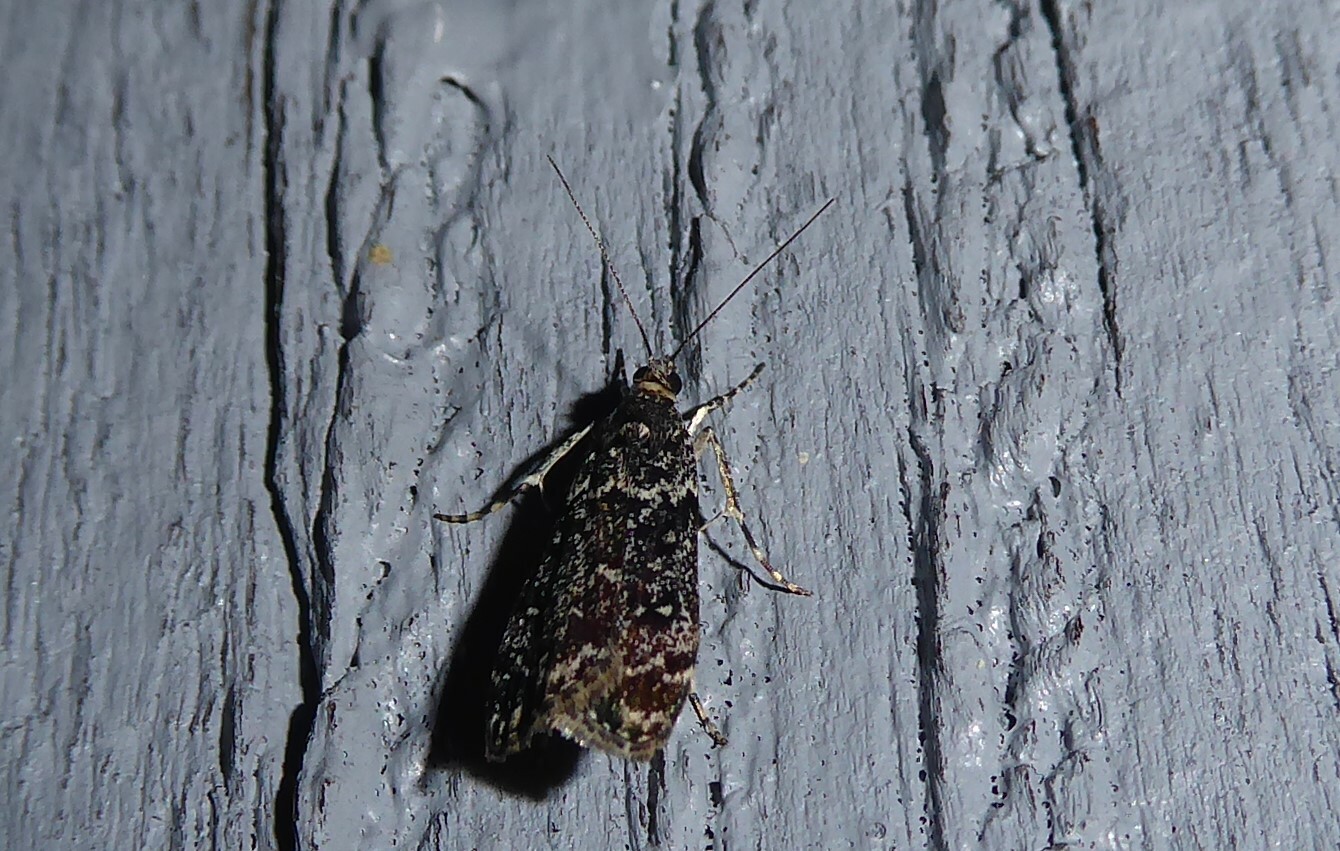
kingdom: Animalia
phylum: Arthropoda
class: Insecta
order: Lepidoptera
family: Crambidae
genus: Eudonia
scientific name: Eudonia philerga
